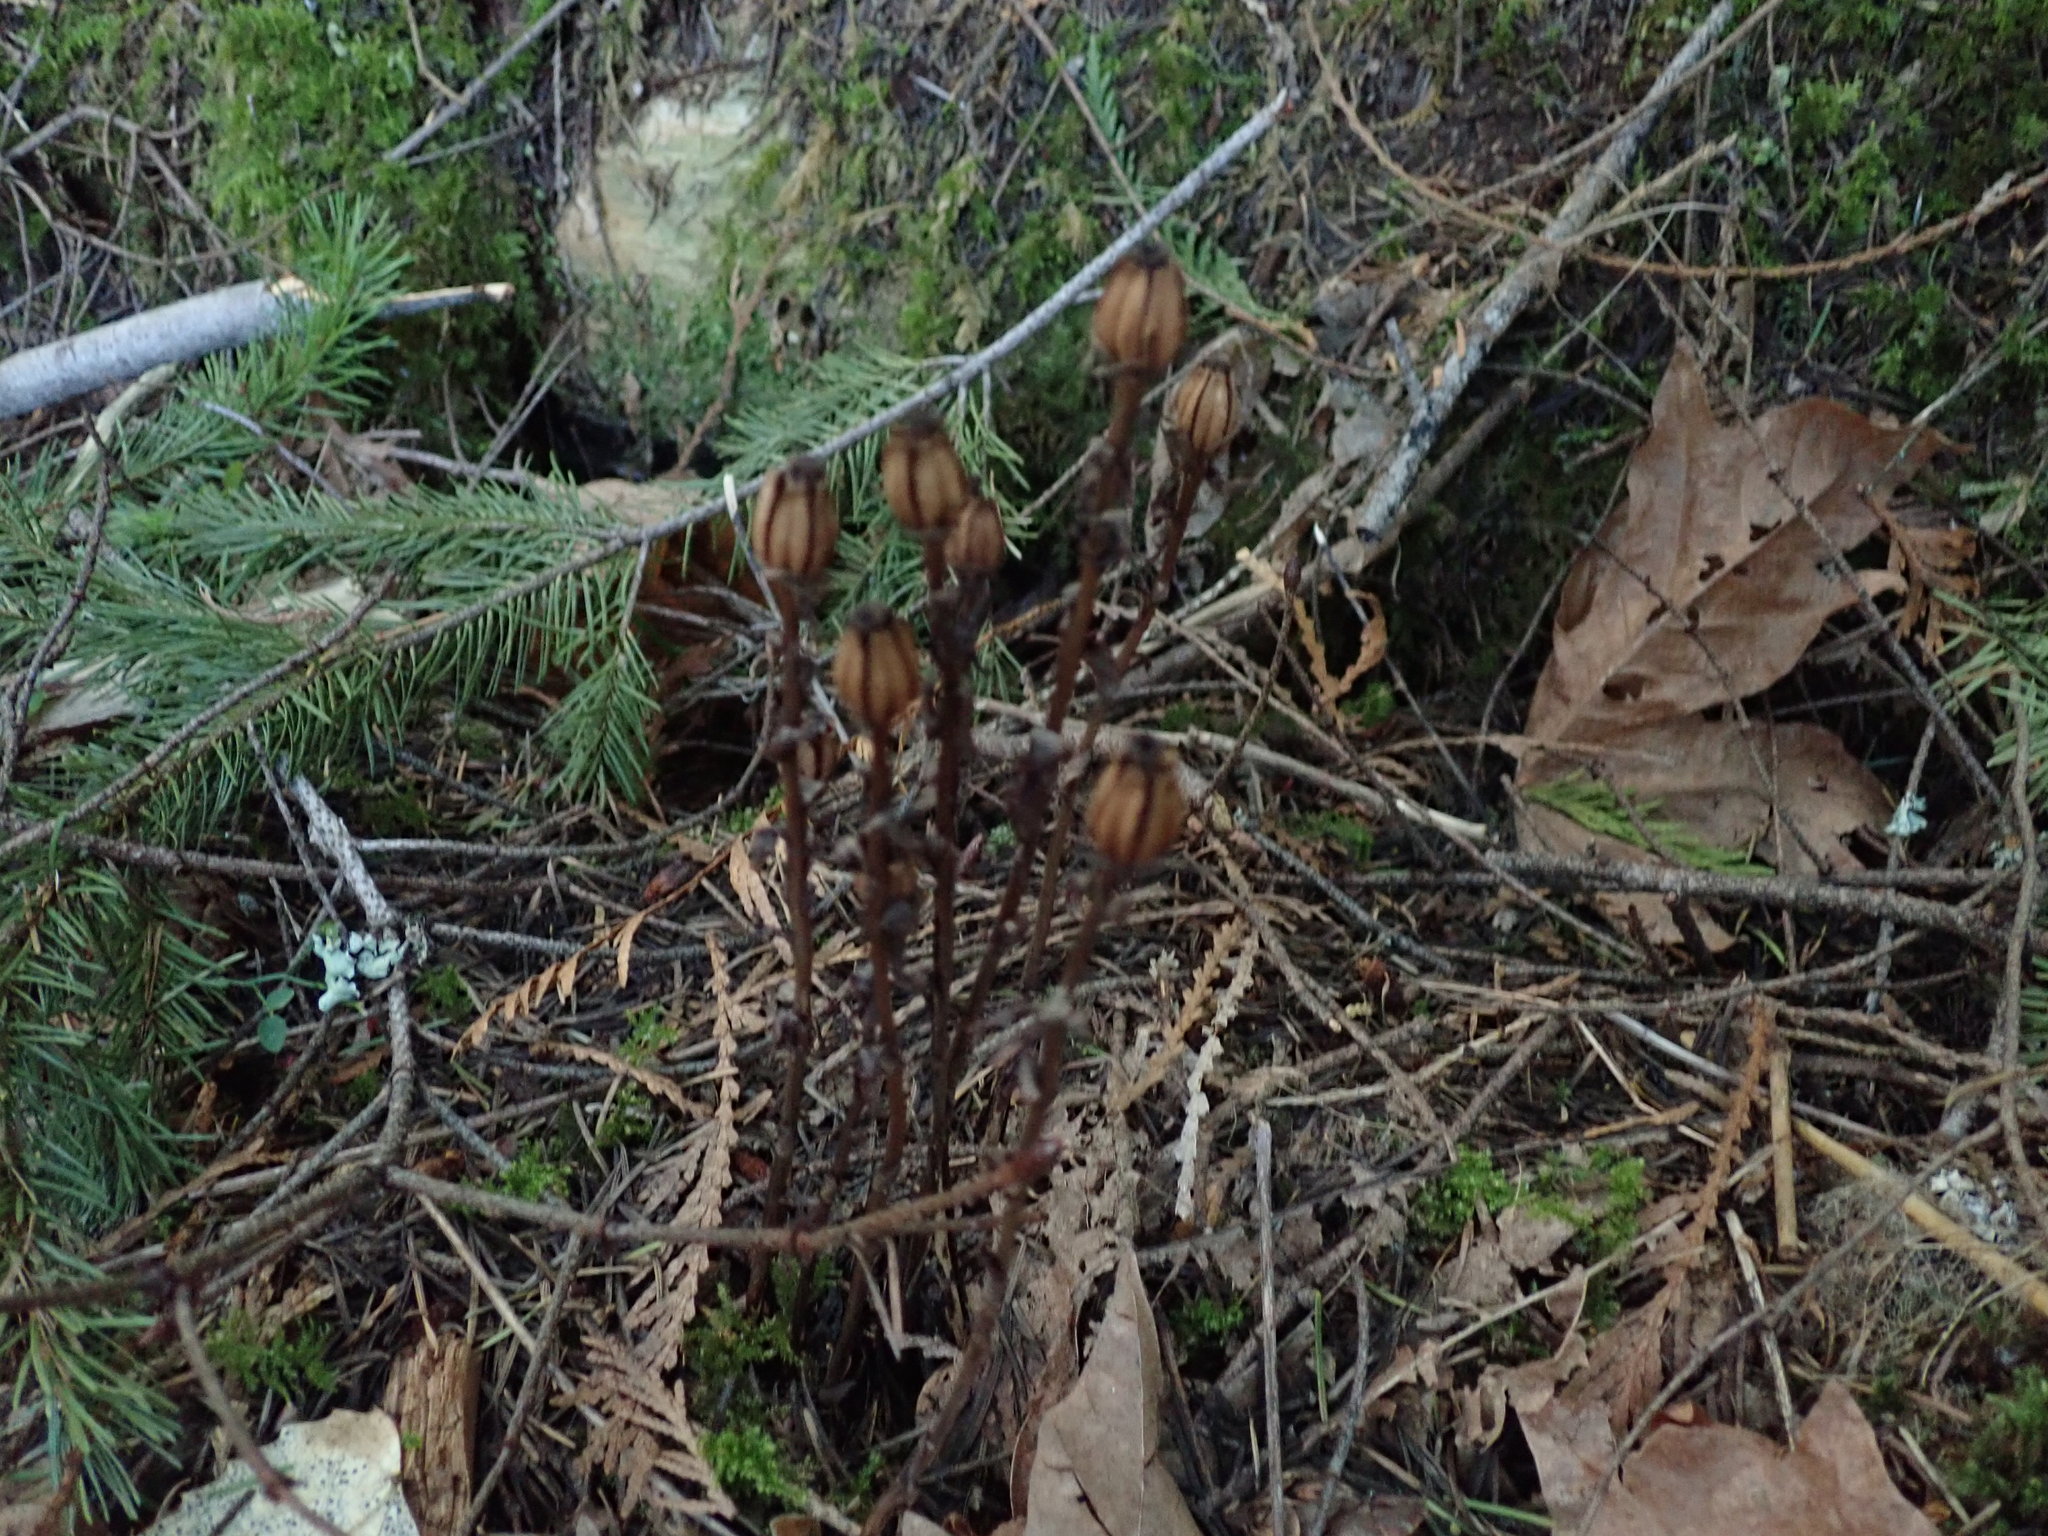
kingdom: Plantae
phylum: Tracheophyta
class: Magnoliopsida
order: Ericales
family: Ericaceae
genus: Monotropa
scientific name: Monotropa uniflora
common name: Convulsion root
